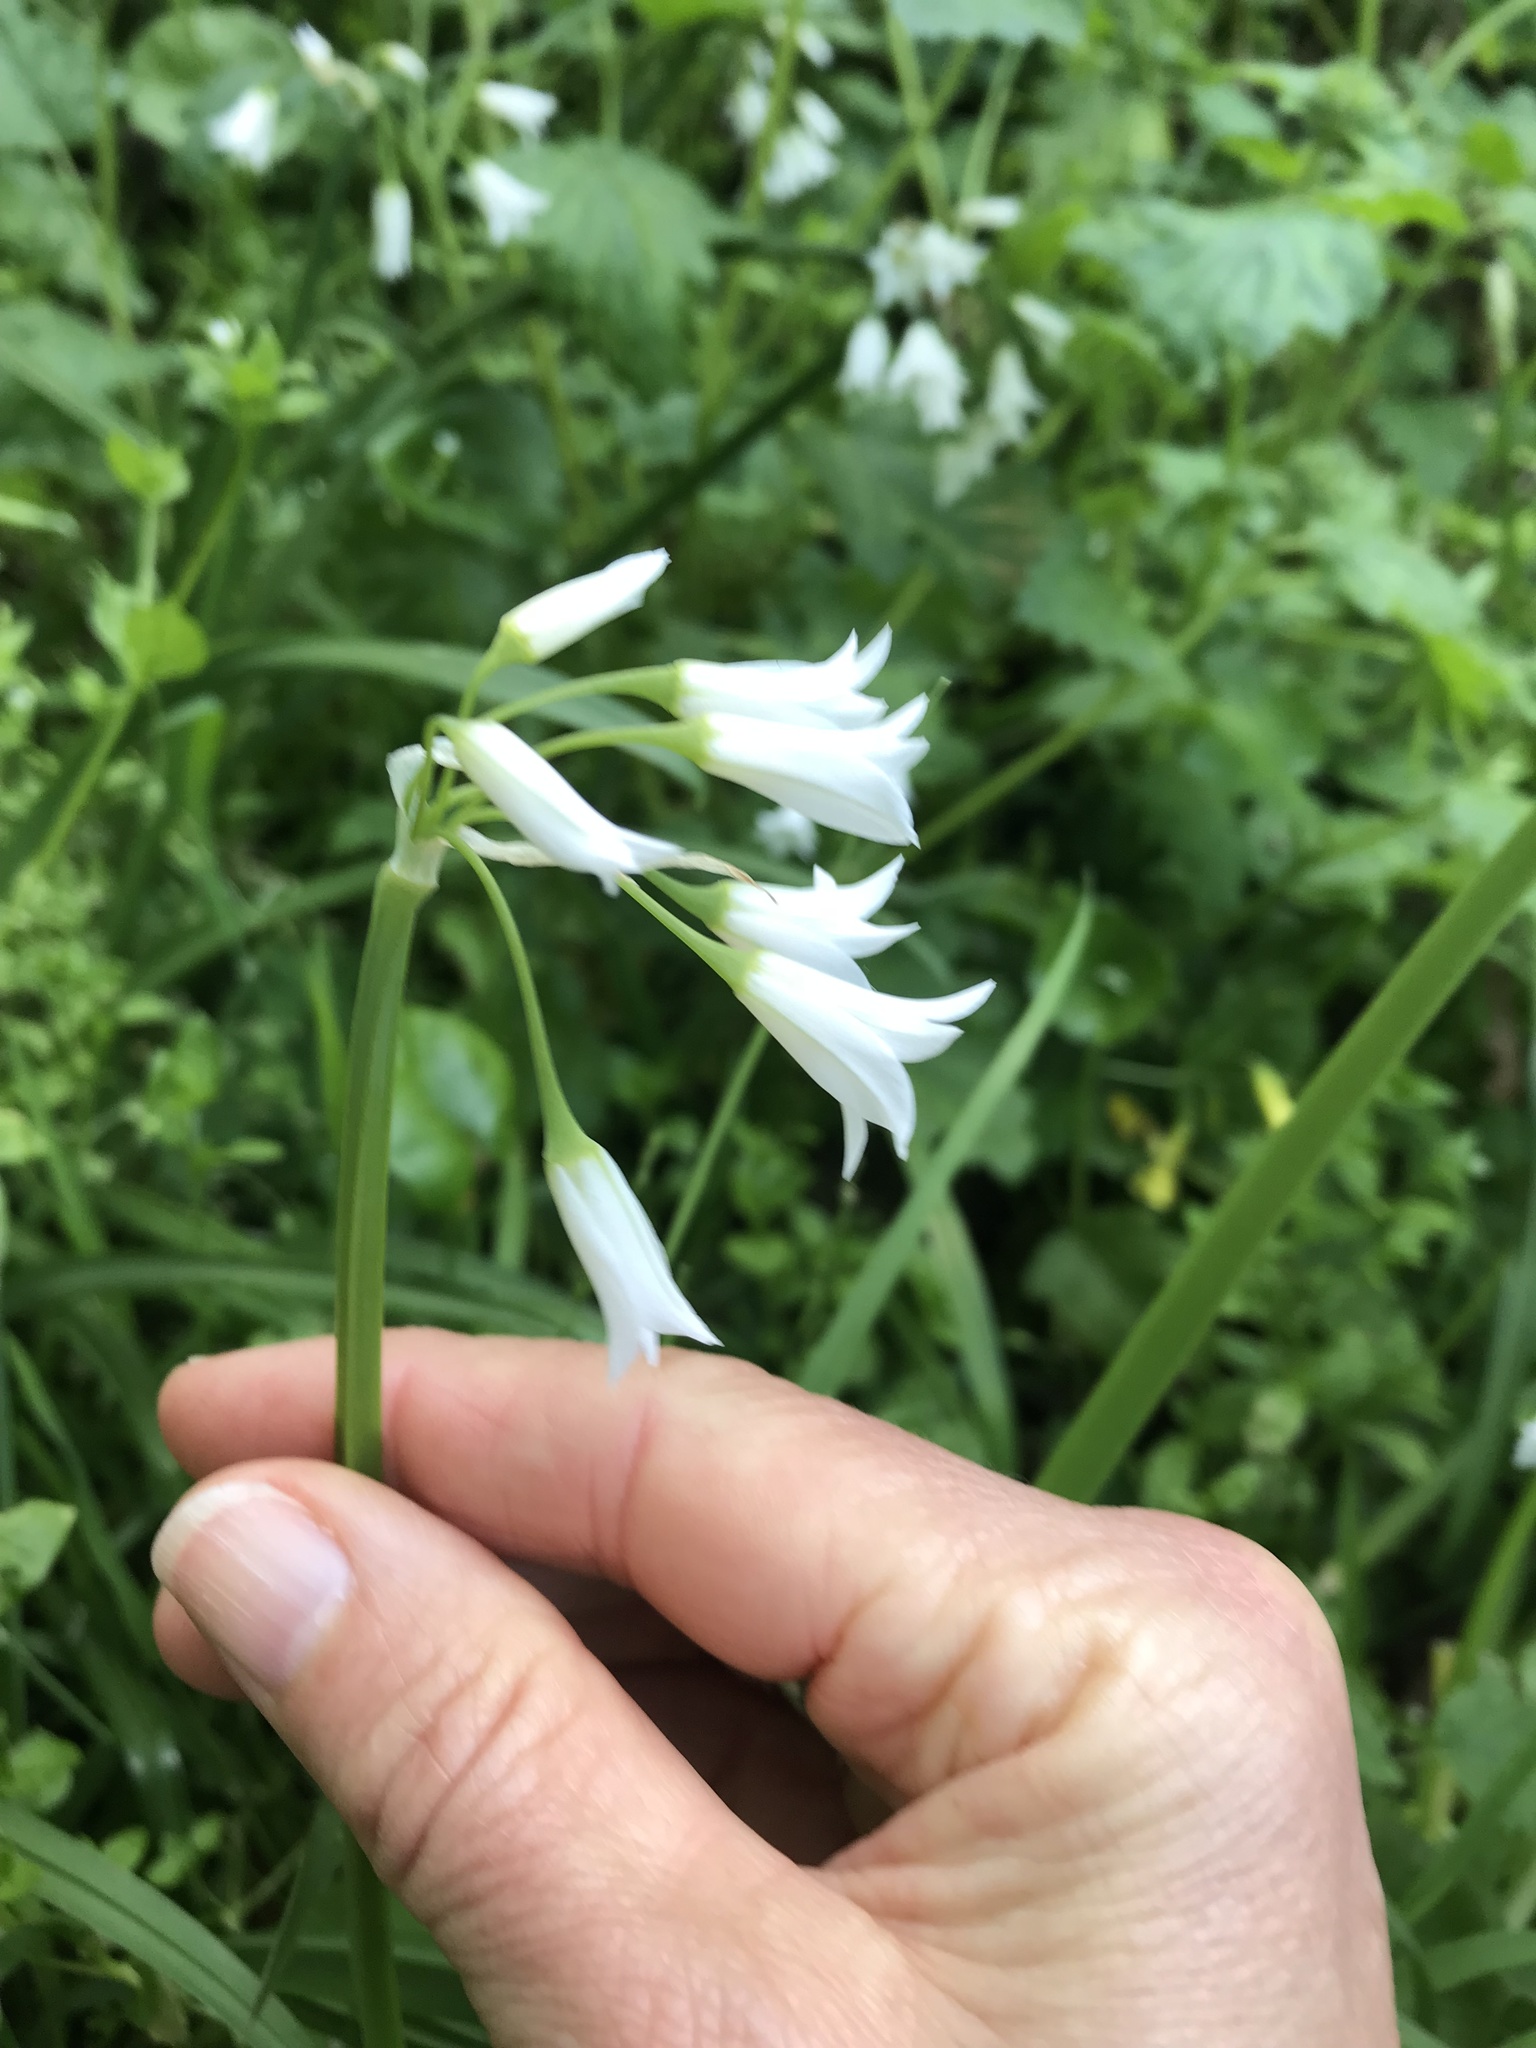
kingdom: Plantae
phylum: Tracheophyta
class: Liliopsida
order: Asparagales
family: Amaryllidaceae
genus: Allium
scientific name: Allium triquetrum
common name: Three-cornered garlic
